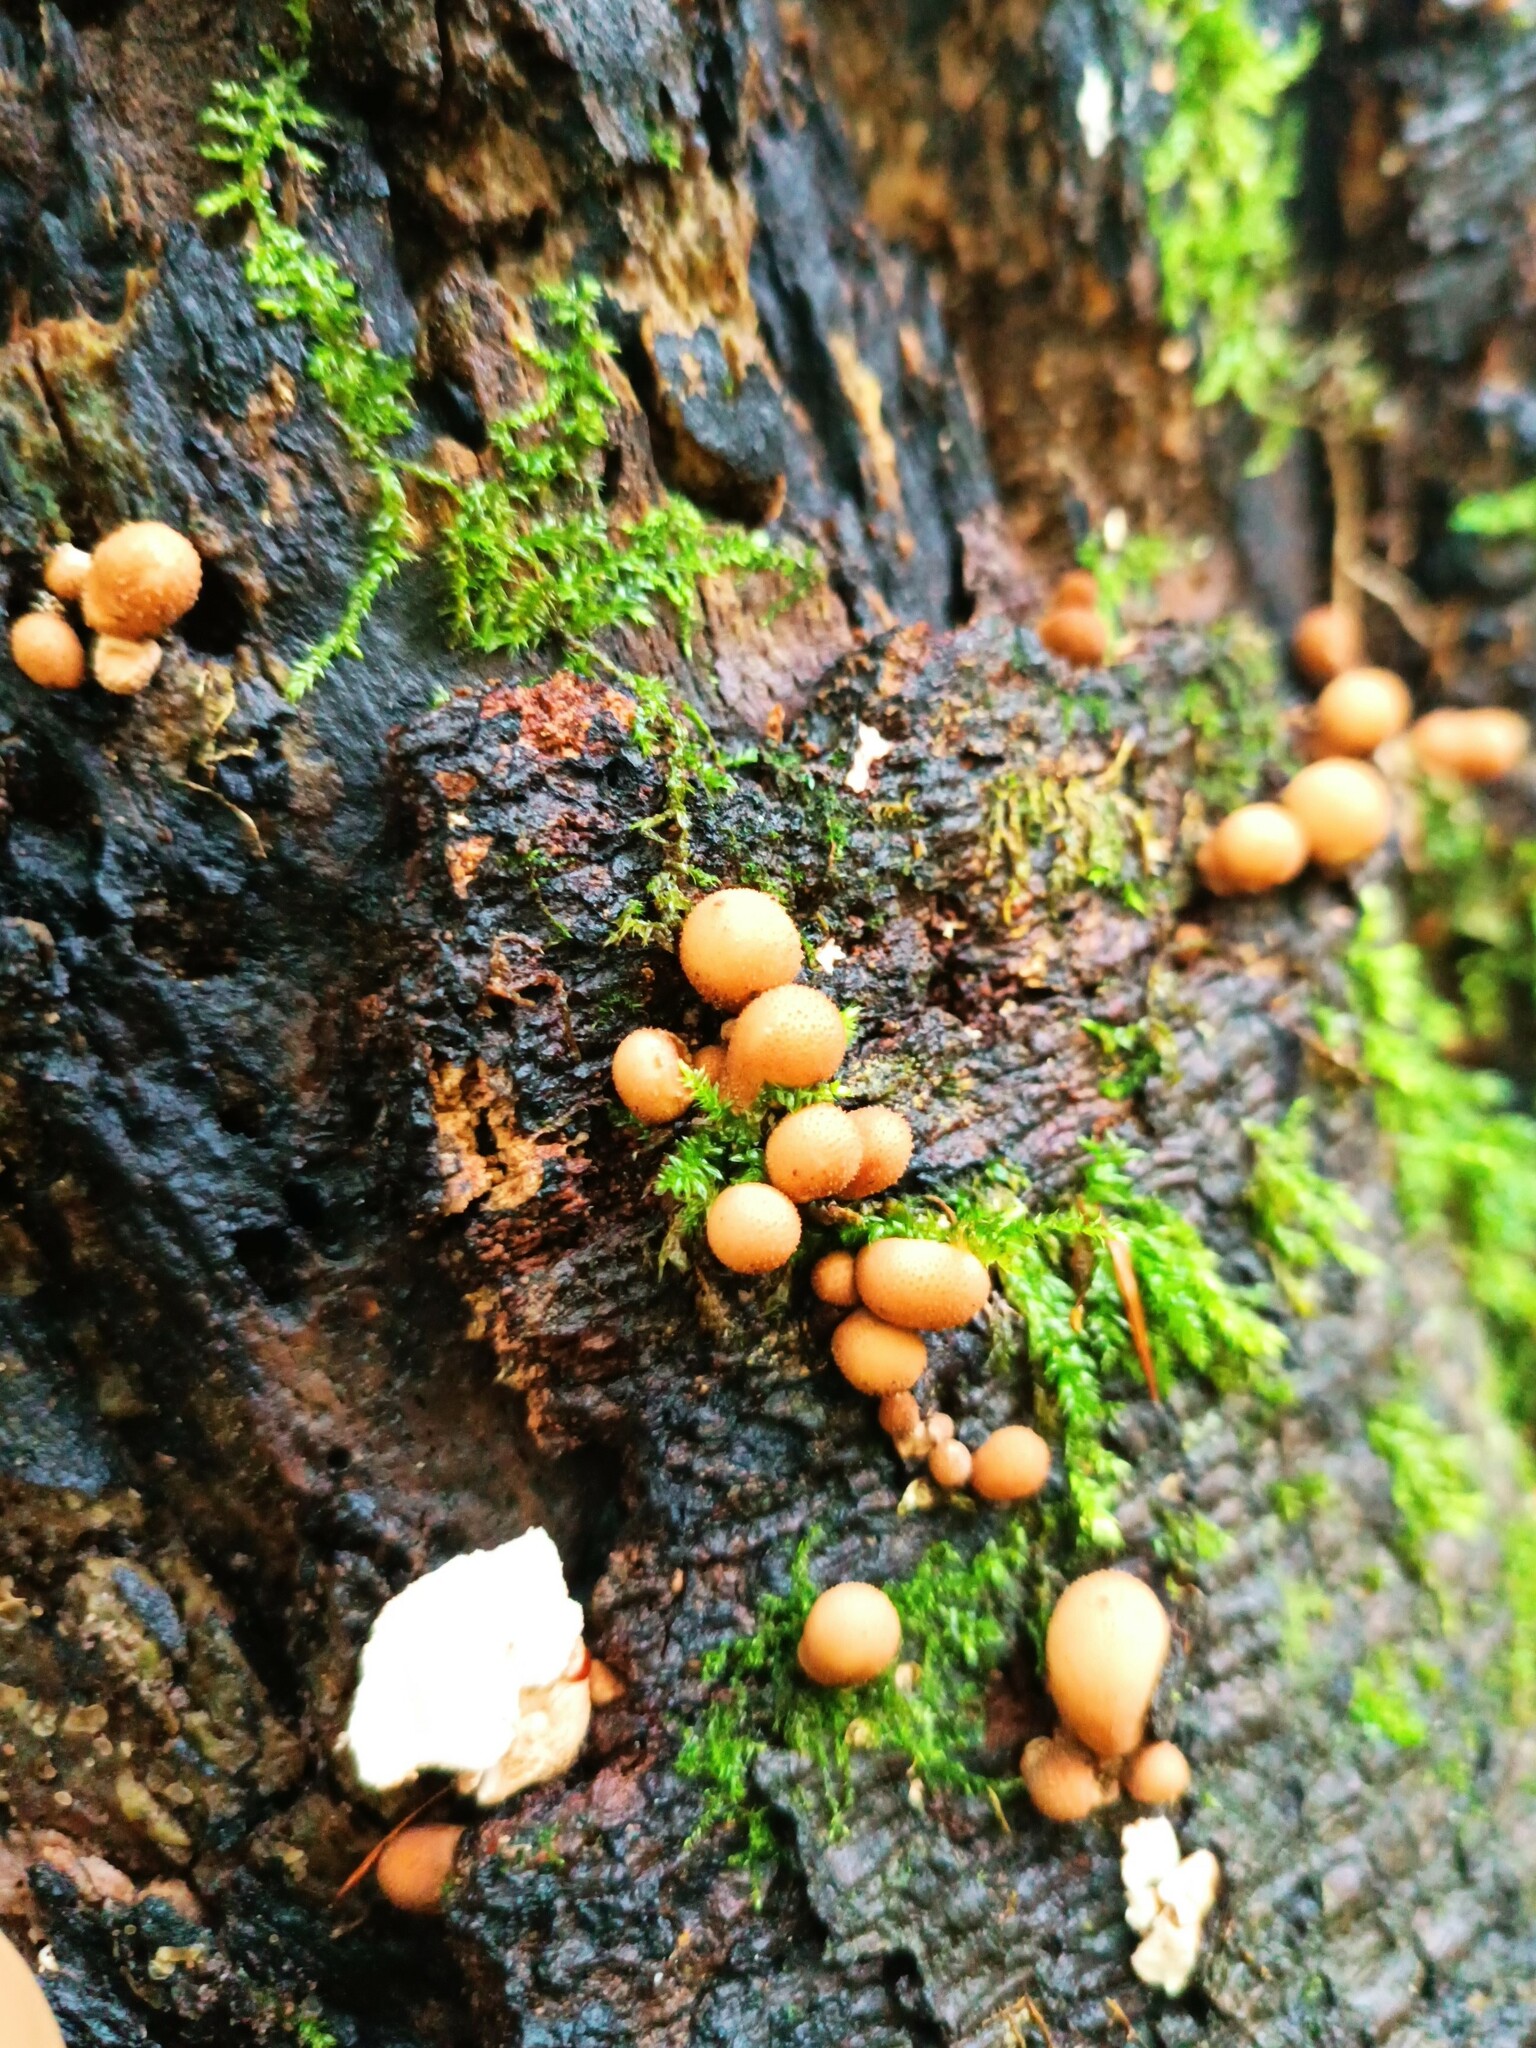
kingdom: Fungi
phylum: Basidiomycota
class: Agaricomycetes
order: Agaricales
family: Lycoperdaceae
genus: Apioperdon
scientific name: Apioperdon pyriforme
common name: Pear-shaped puffball
